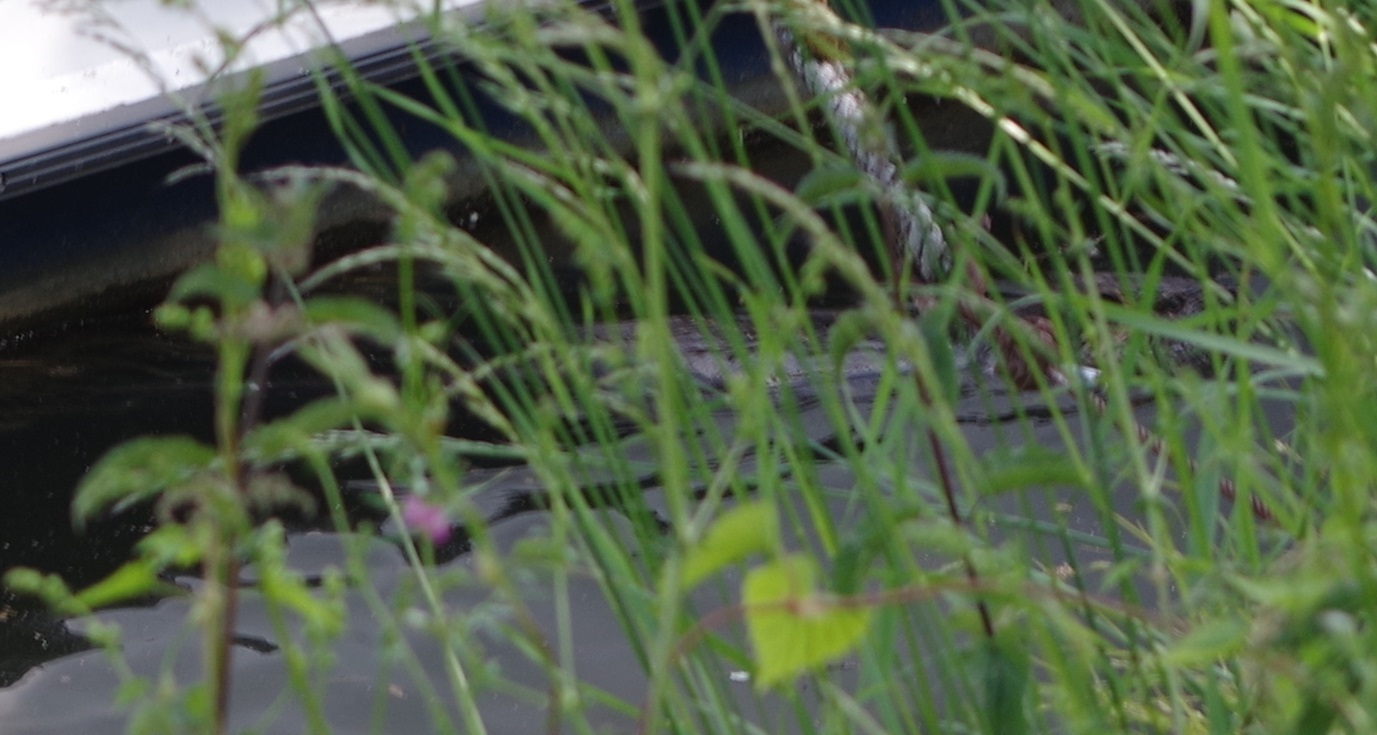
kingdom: Animalia
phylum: Chordata
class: Mammalia
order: Rodentia
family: Castoridae
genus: Castor
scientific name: Castor fiber
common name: Eurasian beaver
